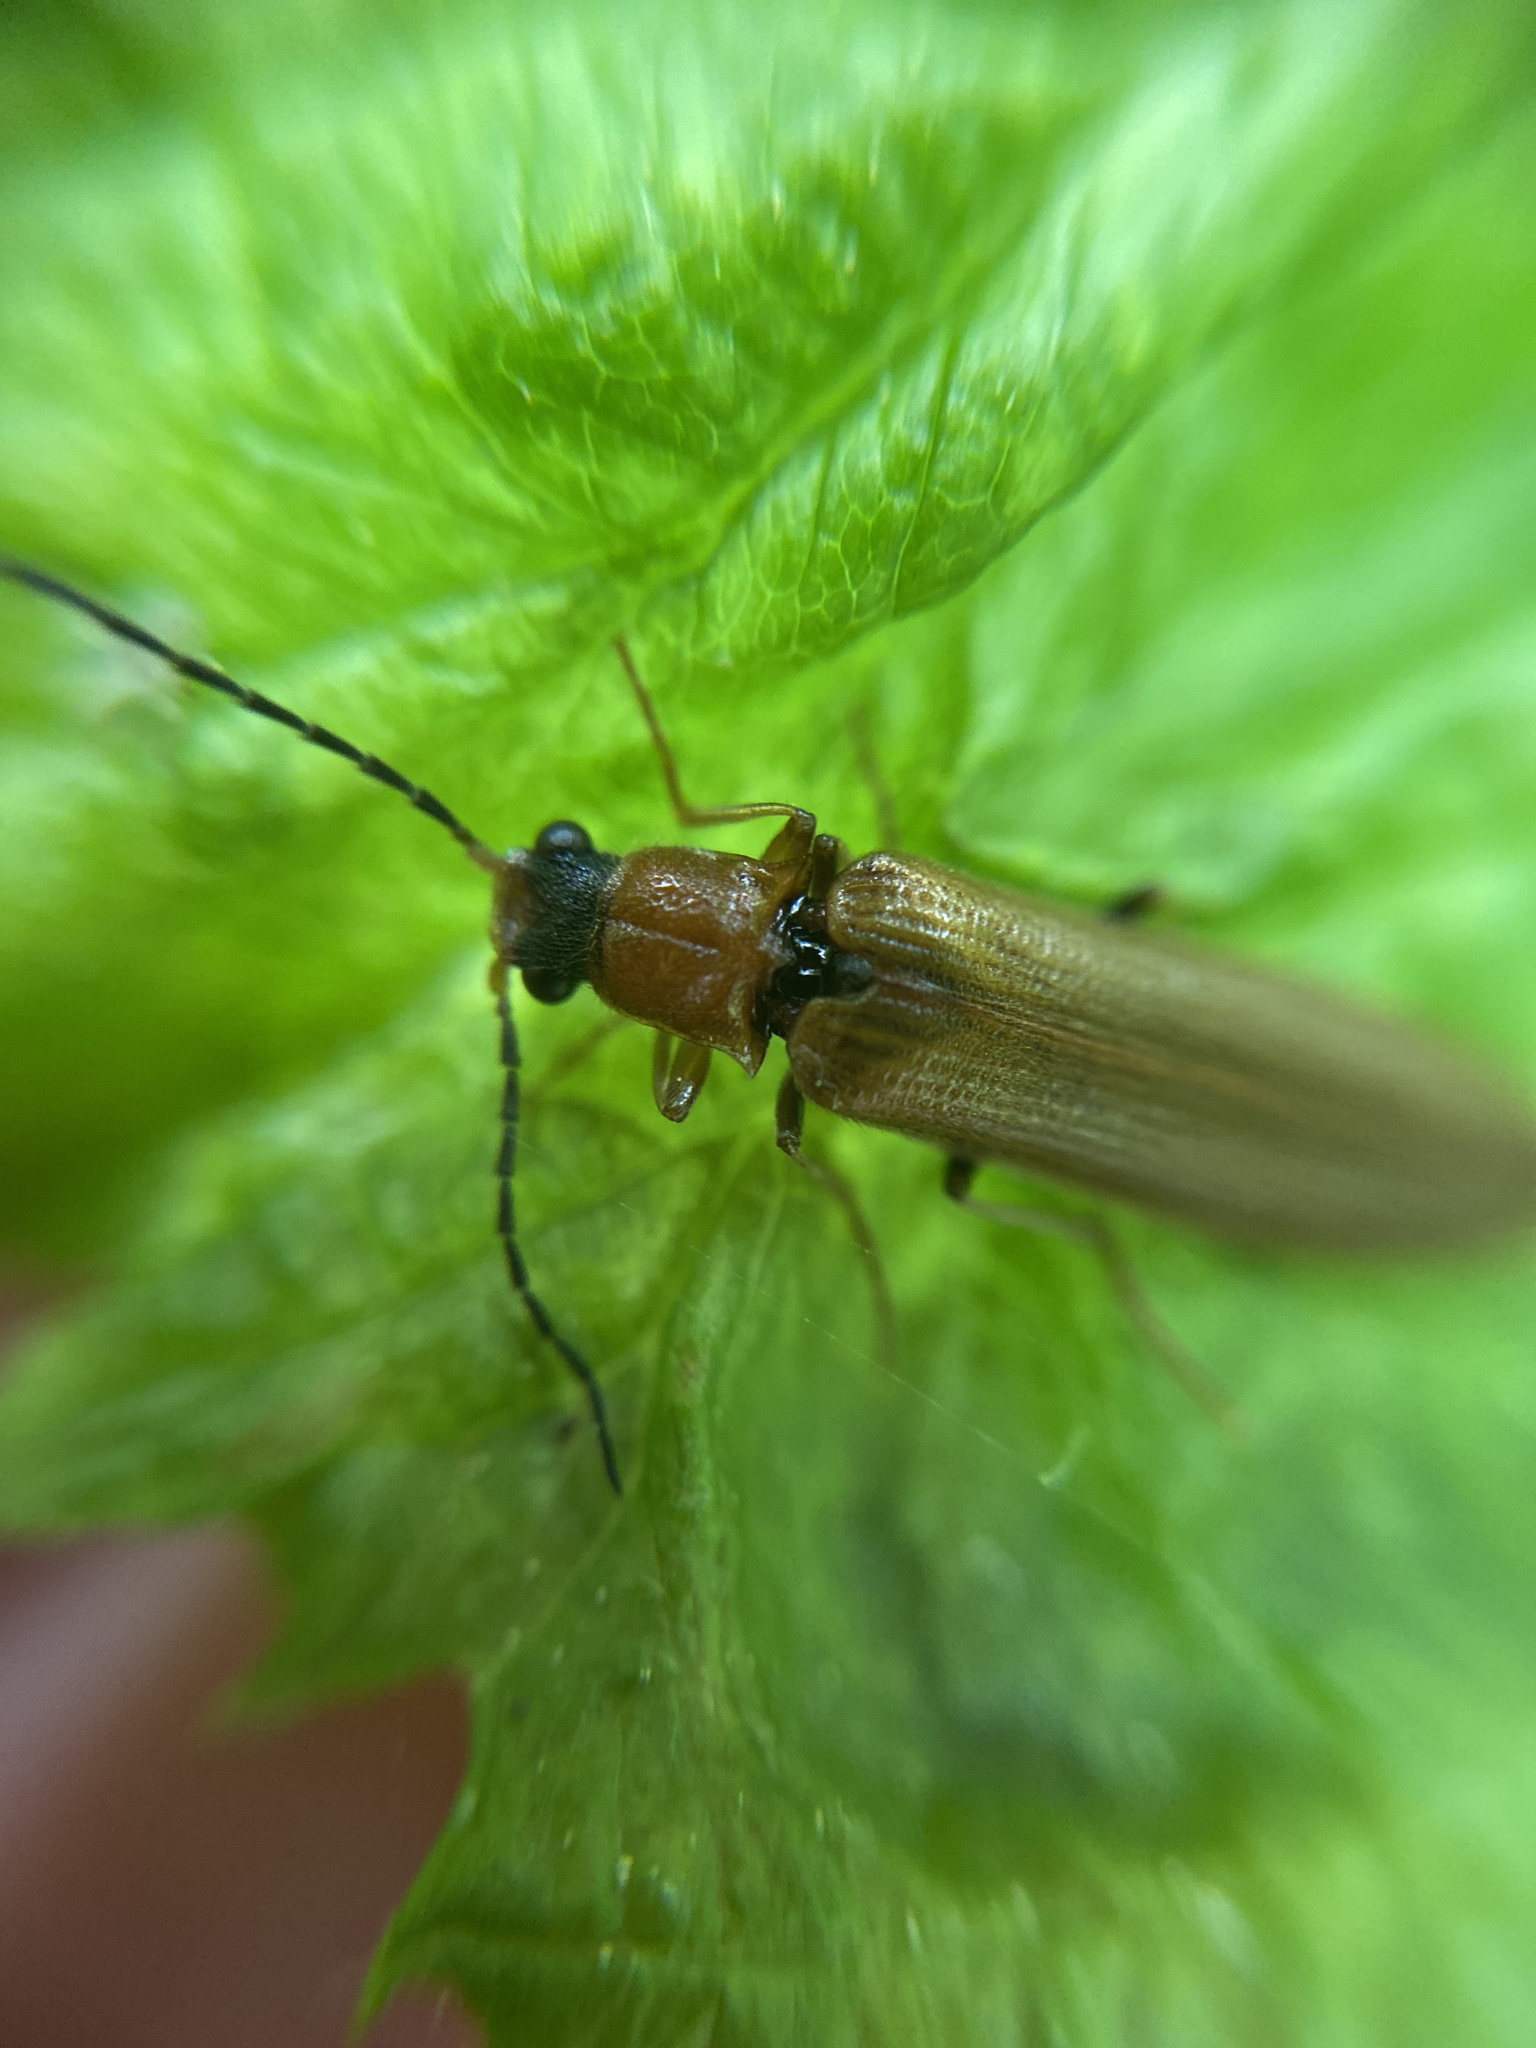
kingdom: Animalia
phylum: Arthropoda
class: Insecta
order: Coleoptera
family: Elateridae
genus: Denticollis
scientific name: Denticollis linearis
